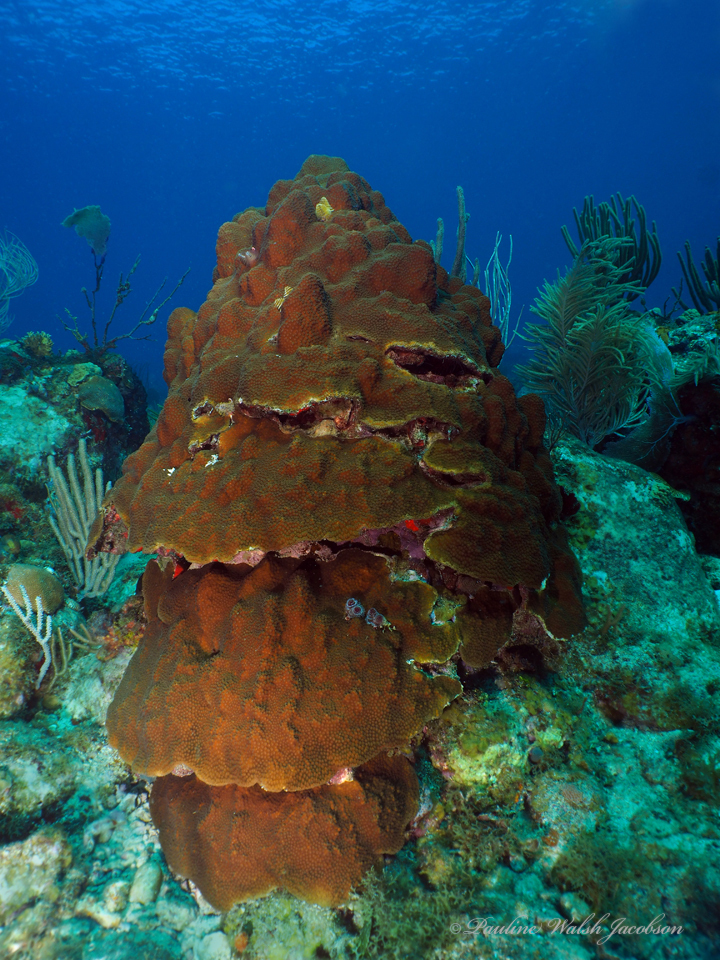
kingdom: Animalia
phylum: Cnidaria
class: Anthozoa
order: Scleractinia
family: Merulinidae
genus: Orbicella
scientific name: Orbicella faveolata
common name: Mountainous star coral
